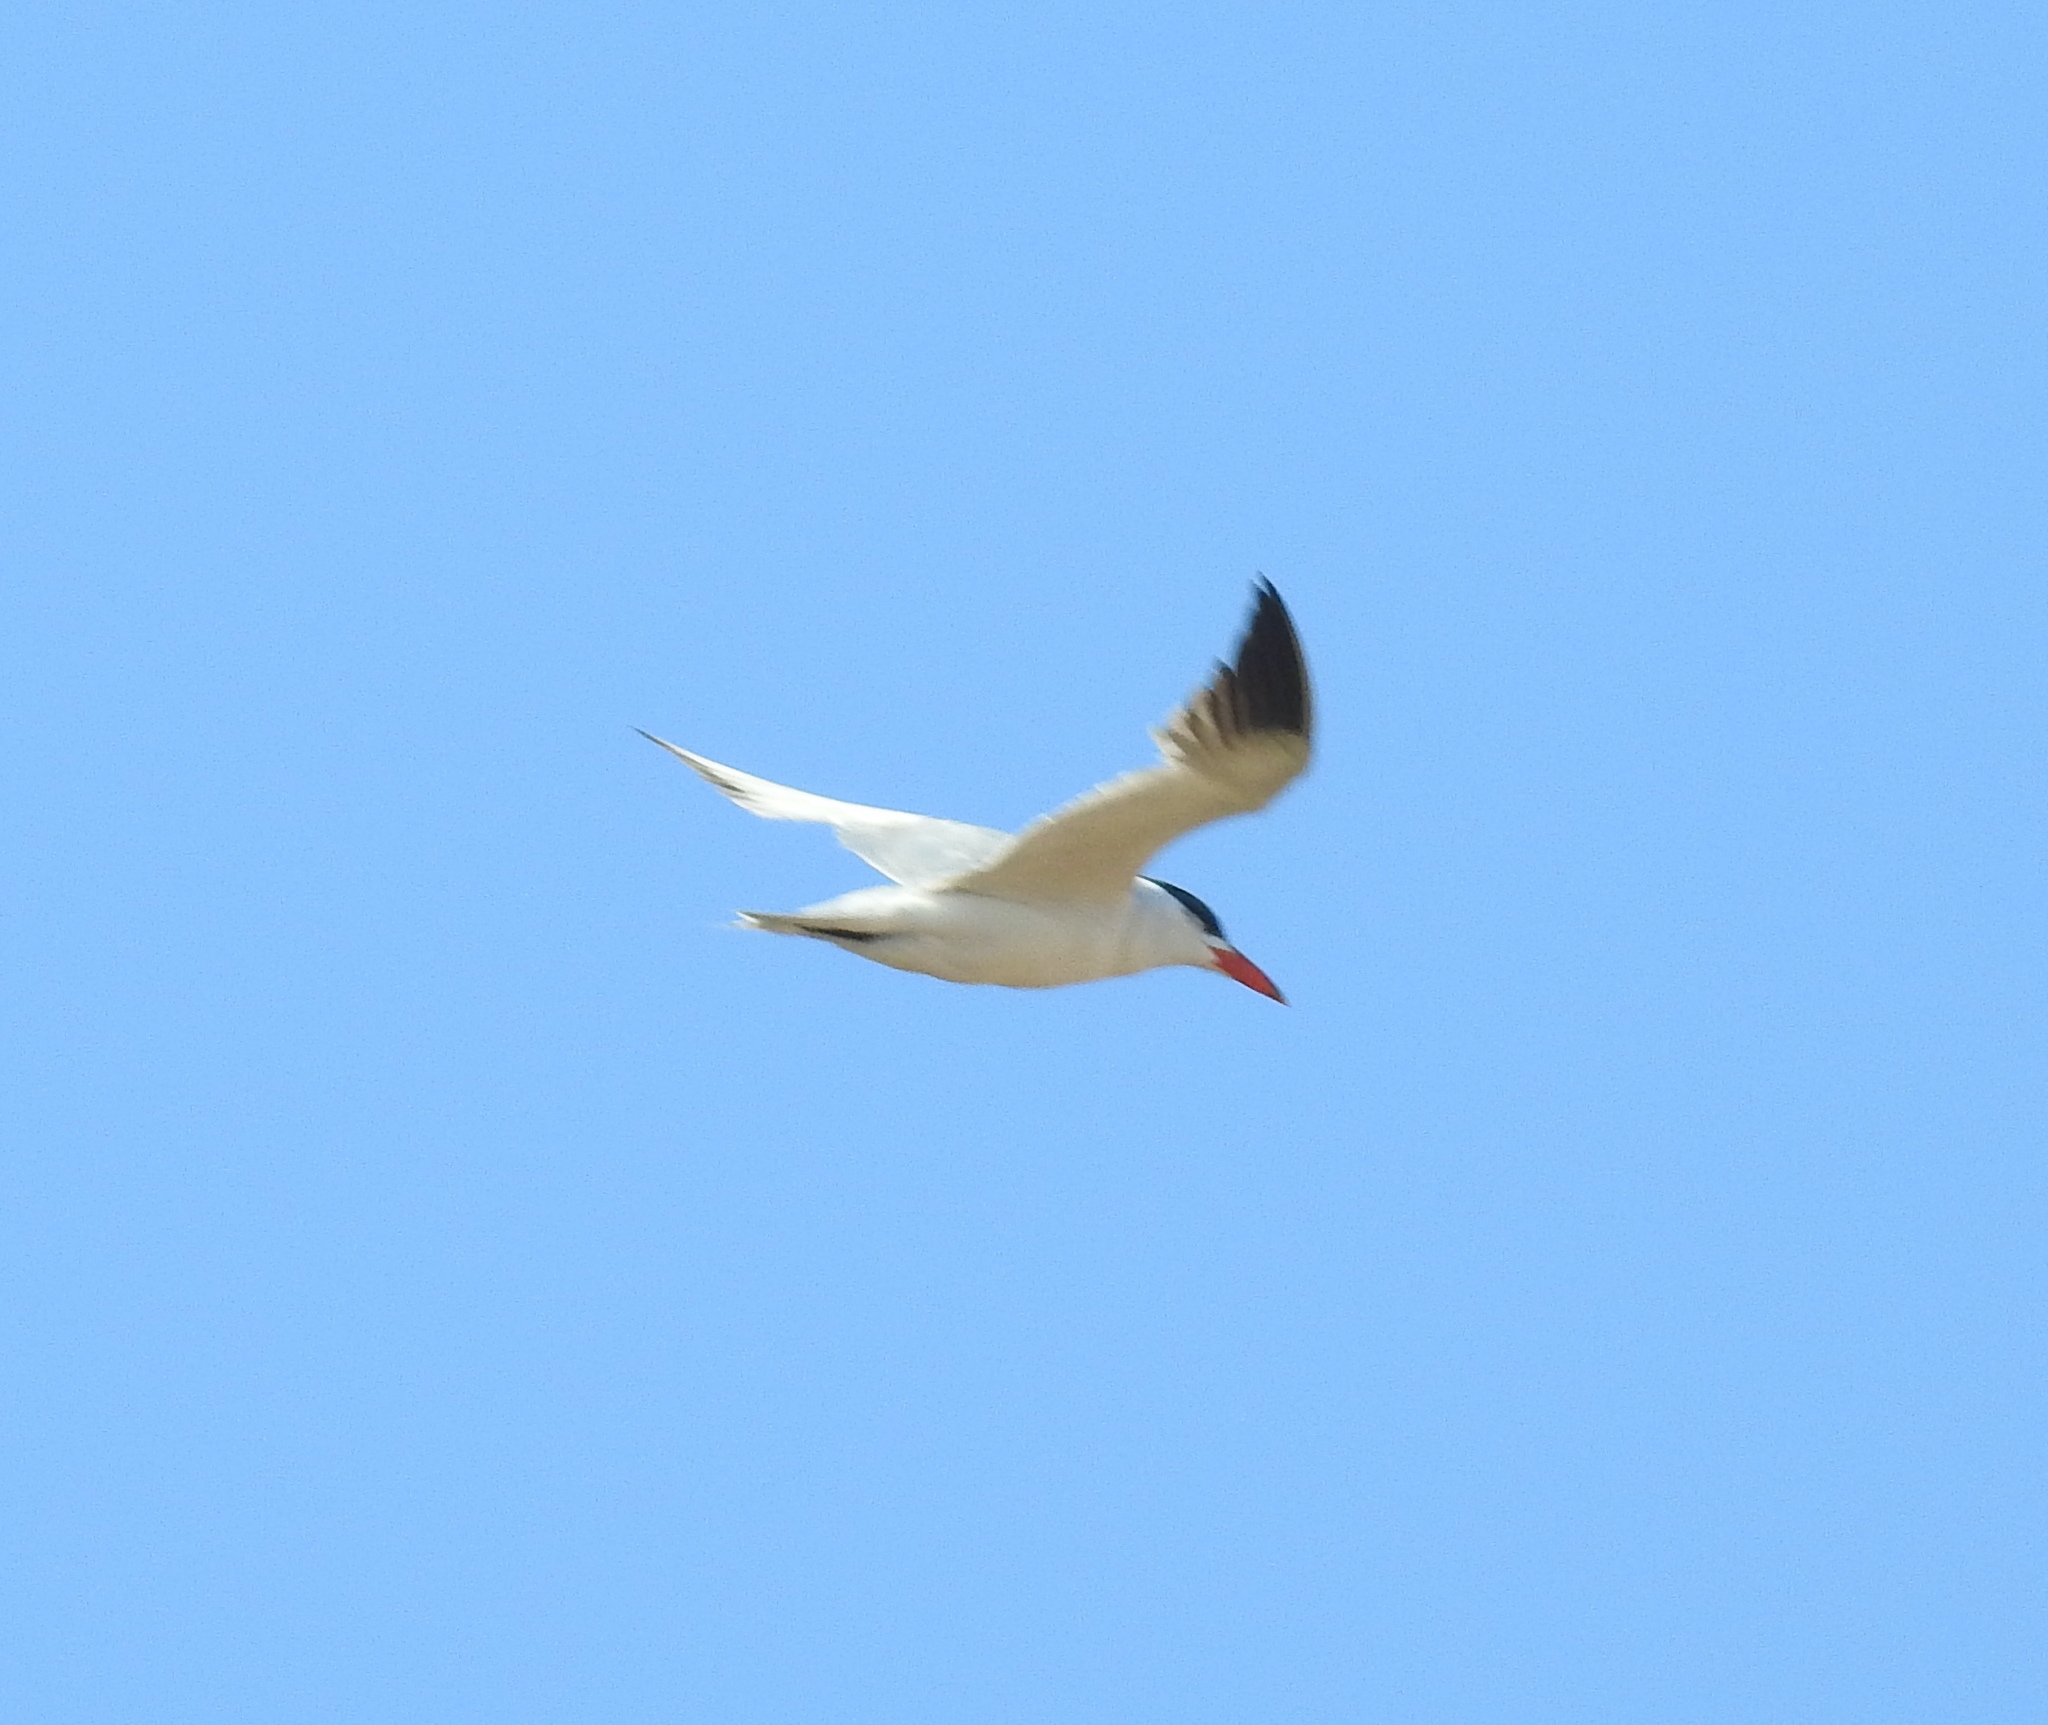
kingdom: Animalia
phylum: Chordata
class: Aves
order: Charadriiformes
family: Laridae
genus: Hydroprogne
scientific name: Hydroprogne caspia
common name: Caspian tern
